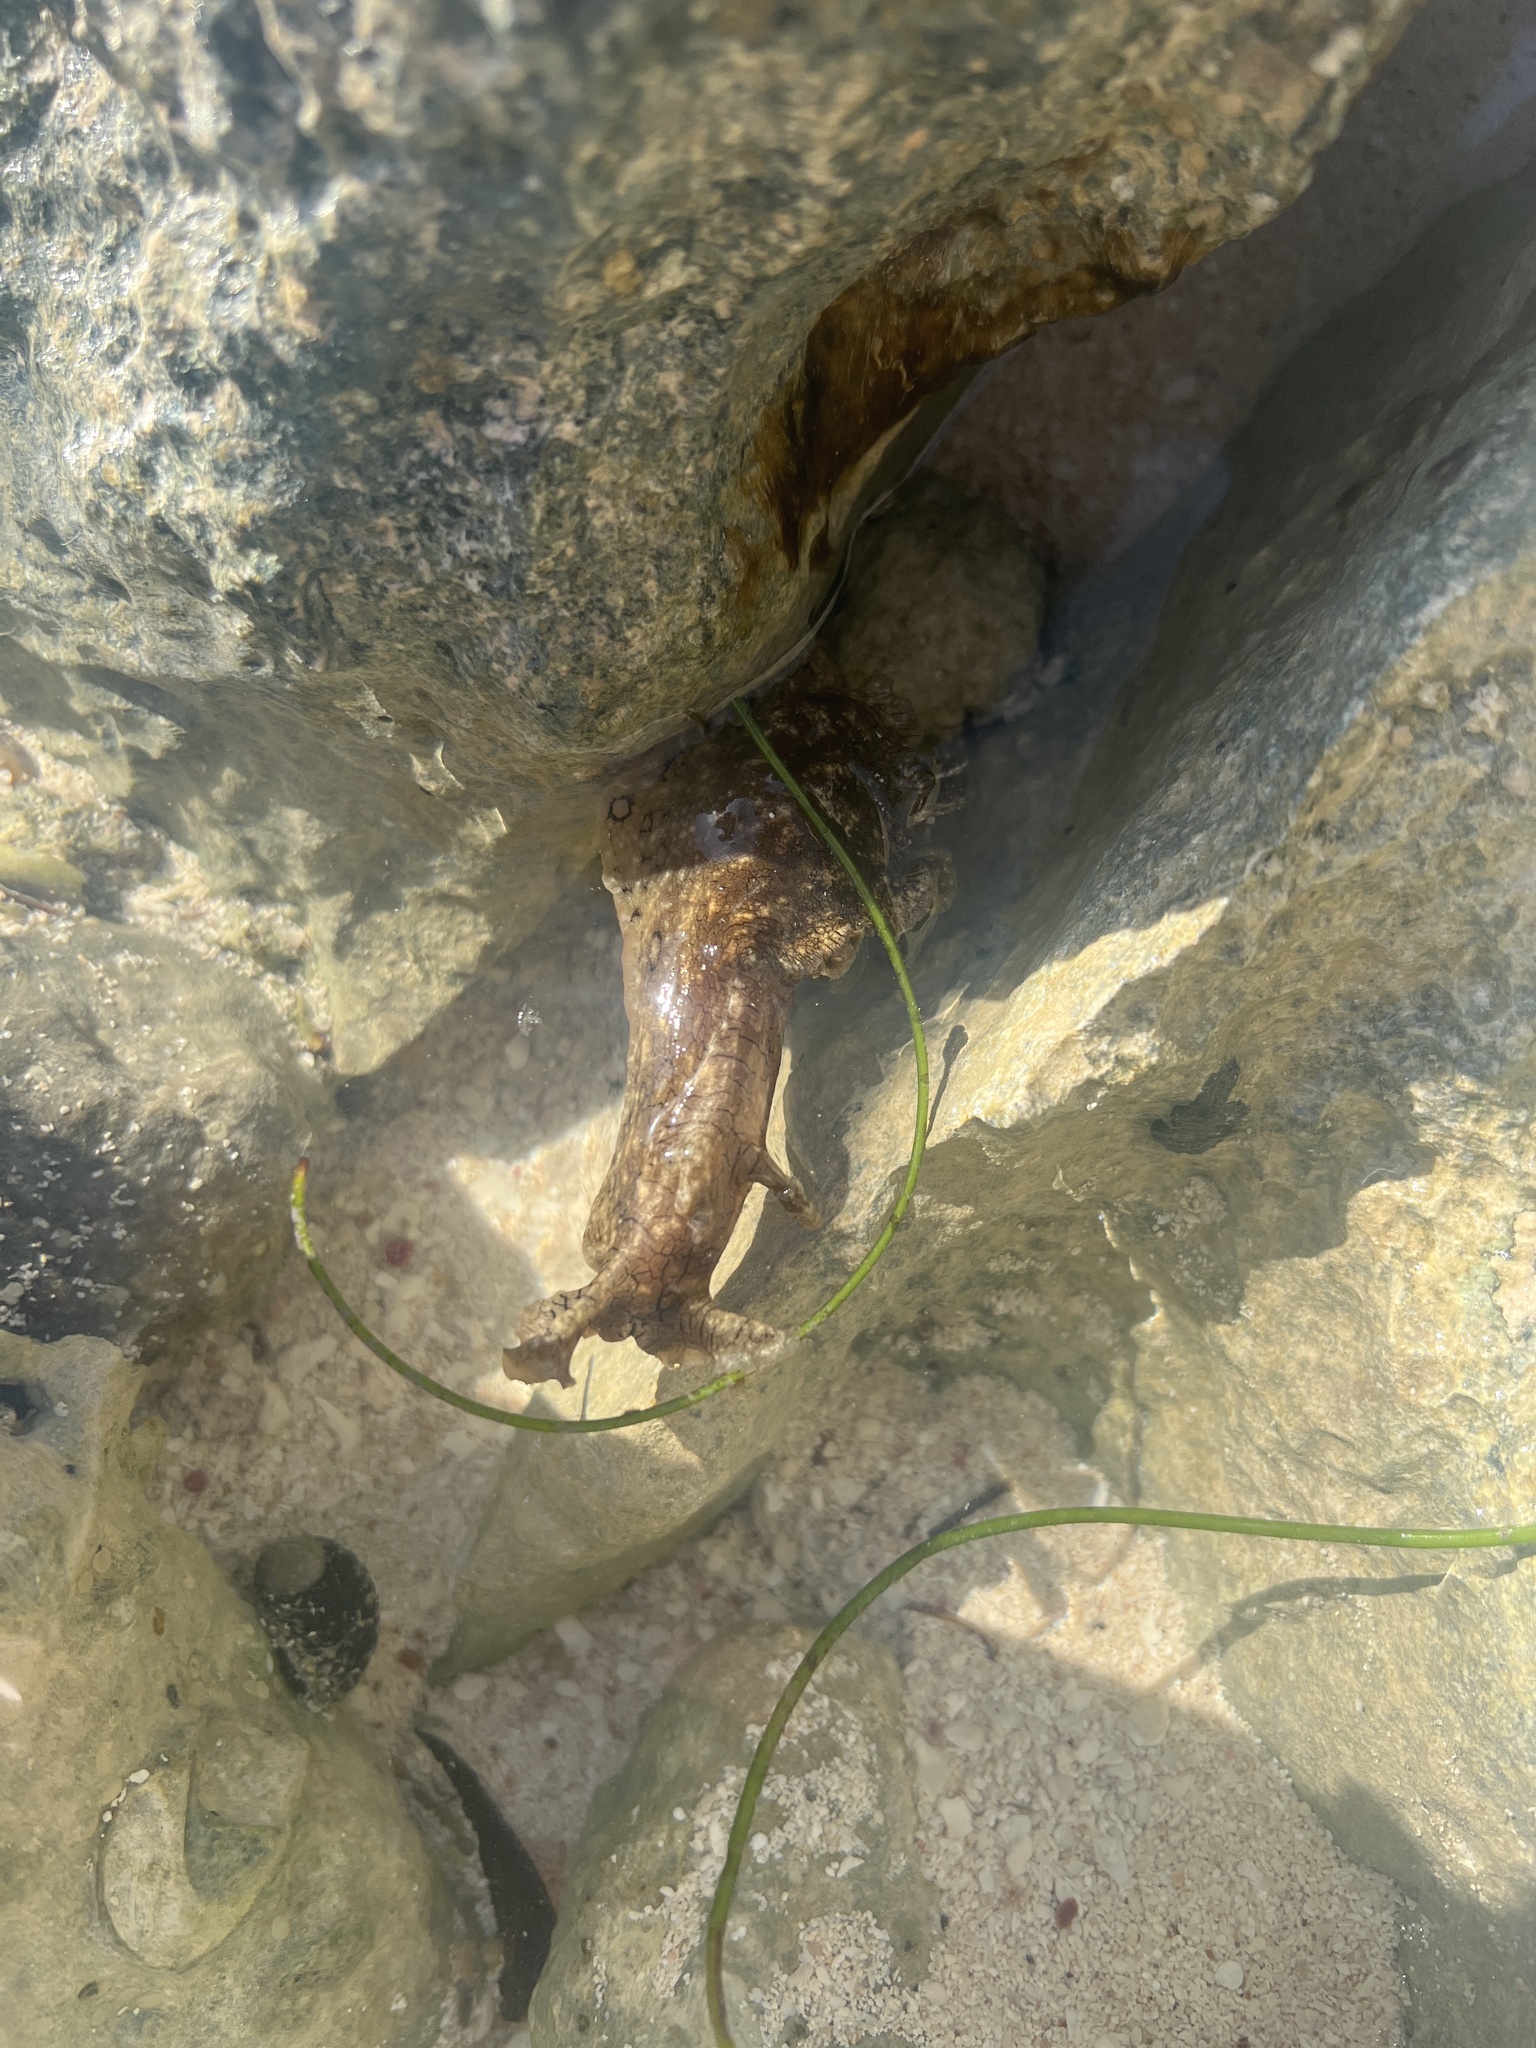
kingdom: Animalia
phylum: Mollusca
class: Gastropoda
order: Aplysiida
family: Aplysiidae
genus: Aplysia
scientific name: Aplysia dactylomela
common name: Large-spotted sea hare
